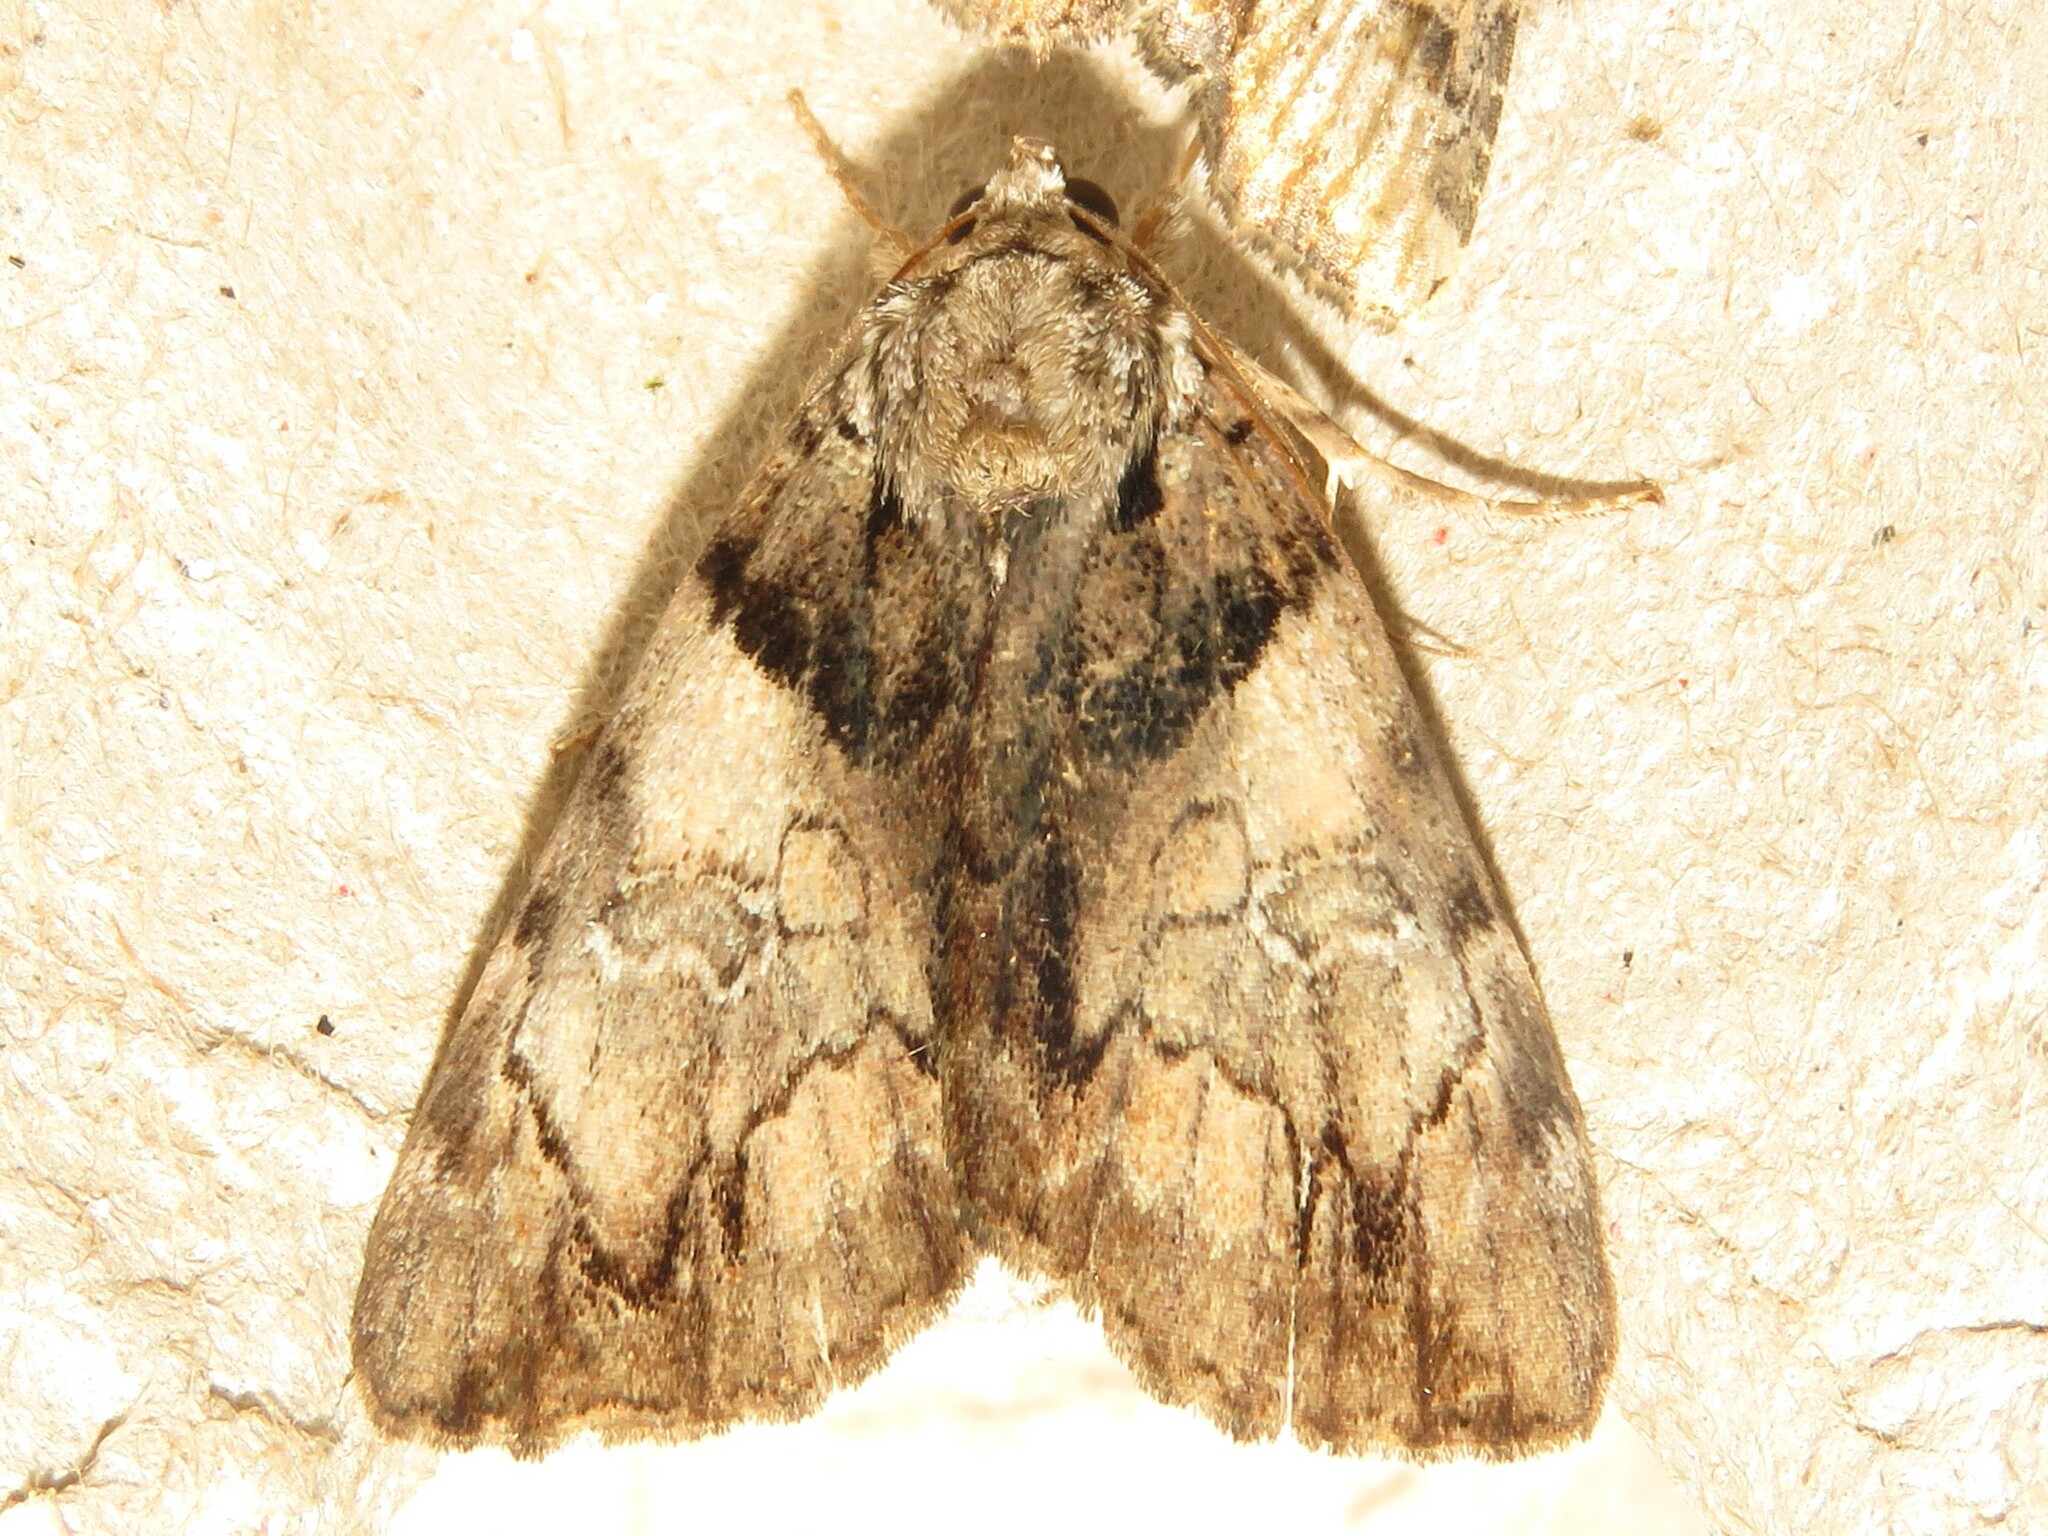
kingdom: Animalia
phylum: Arthropoda
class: Insecta
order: Lepidoptera
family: Erebidae
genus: Catocala
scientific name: Catocala crataegi
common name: Hawthorn underwing moth
